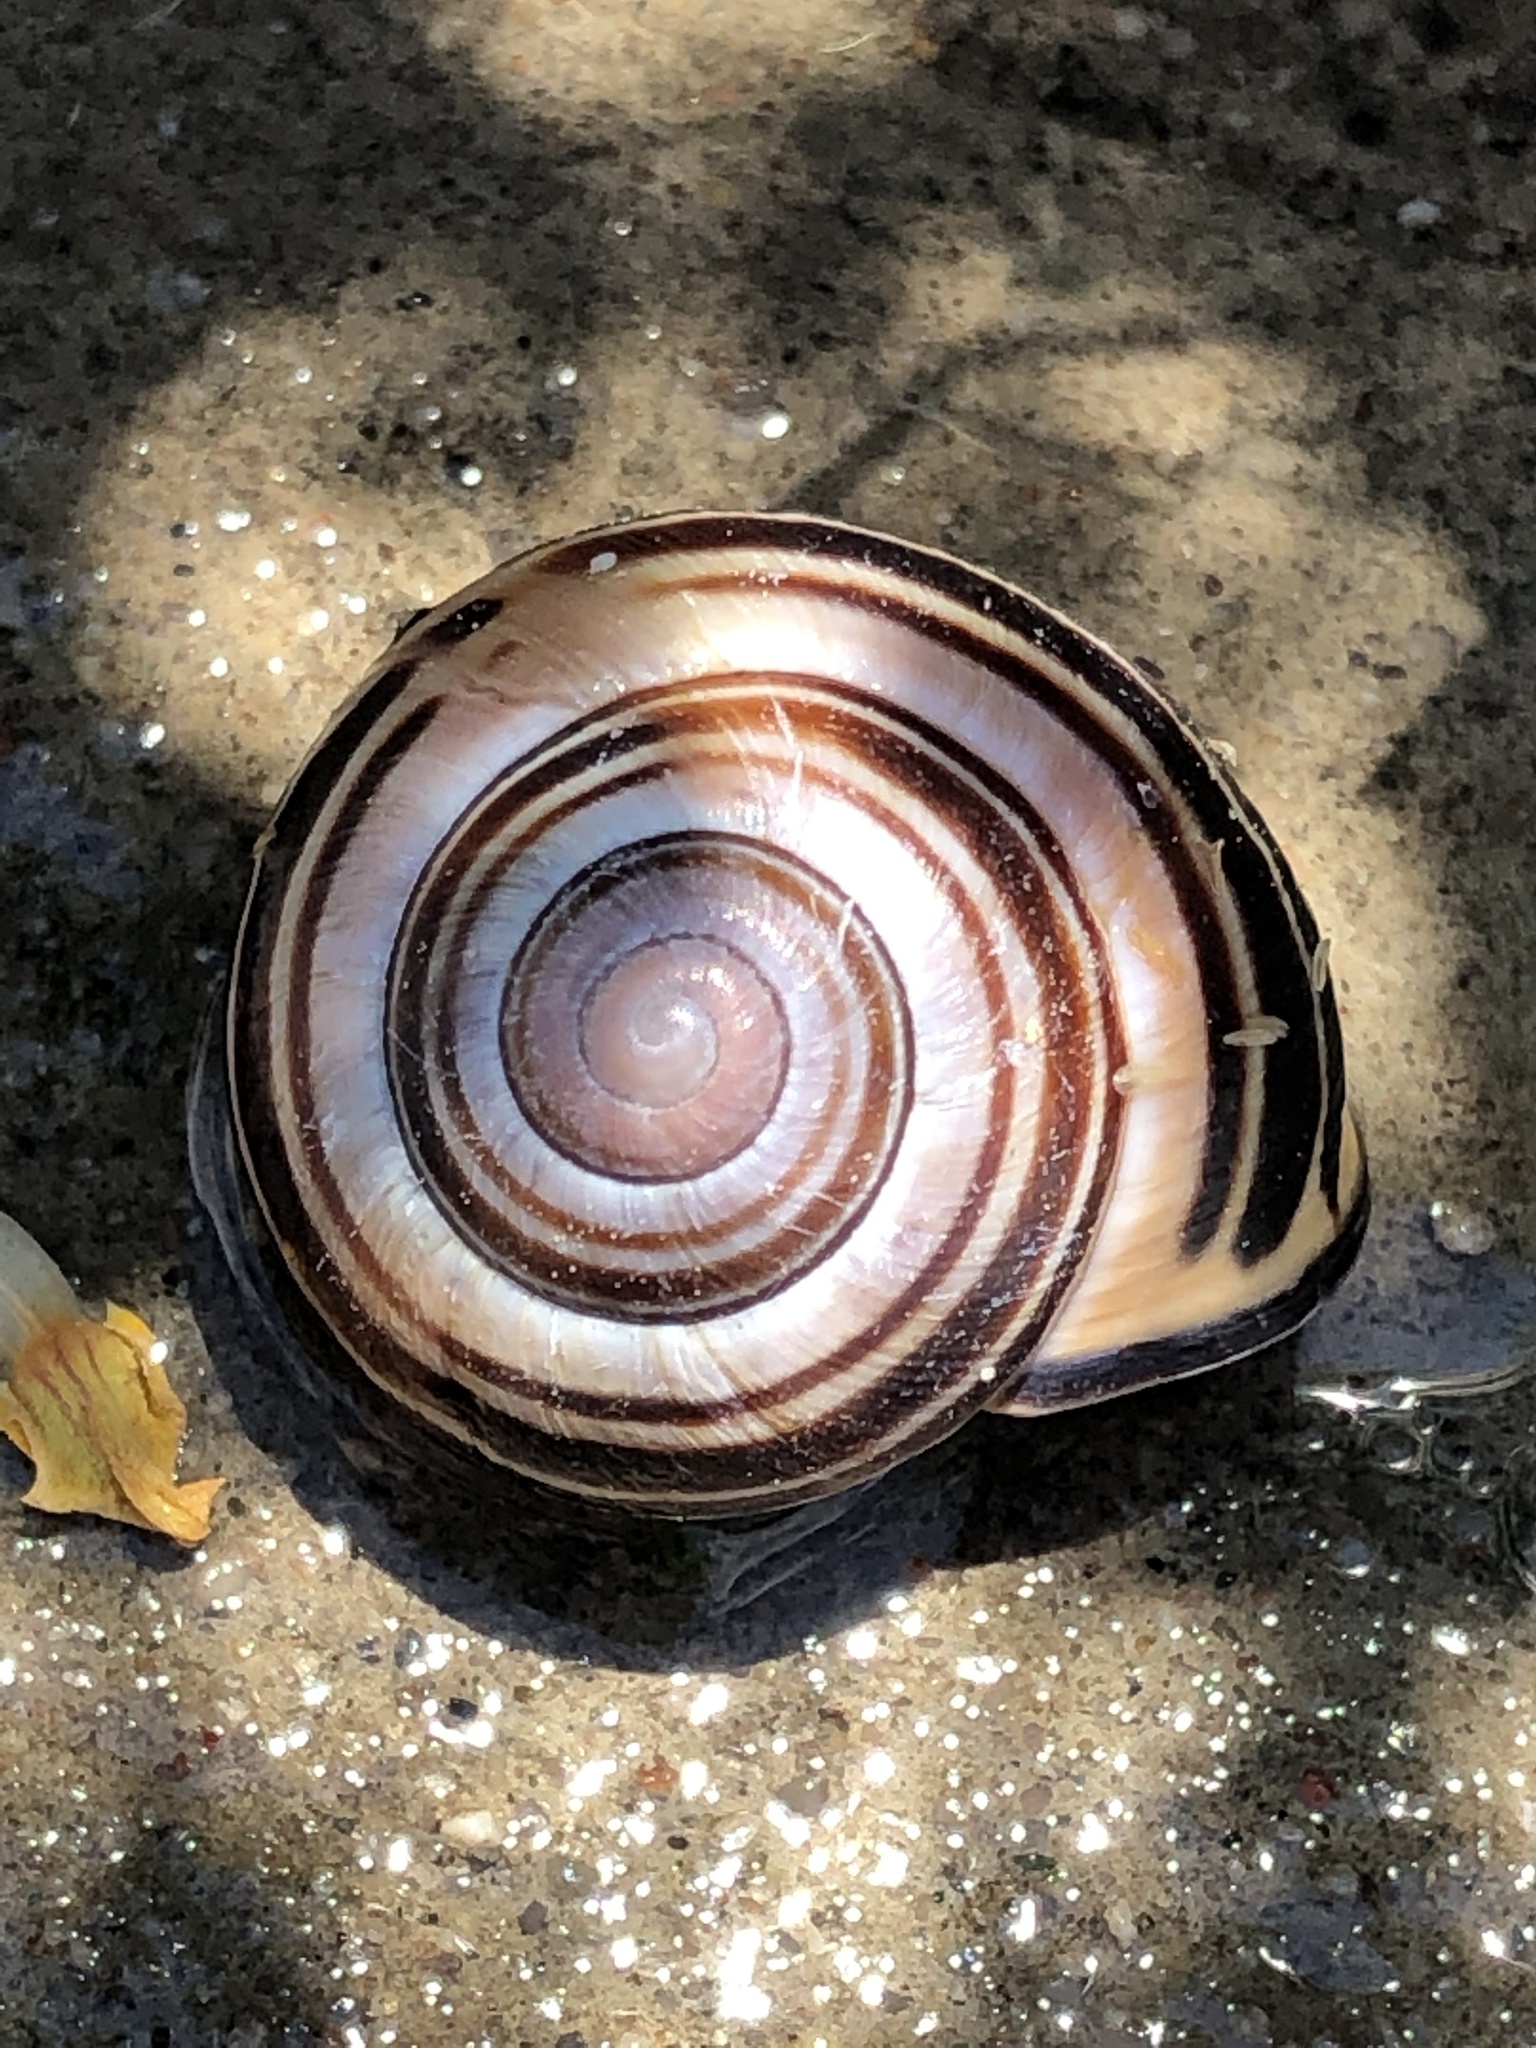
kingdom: Animalia
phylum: Mollusca
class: Gastropoda
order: Stylommatophora
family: Helicidae
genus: Cepaea
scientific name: Cepaea nemoralis
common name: Grovesnail
